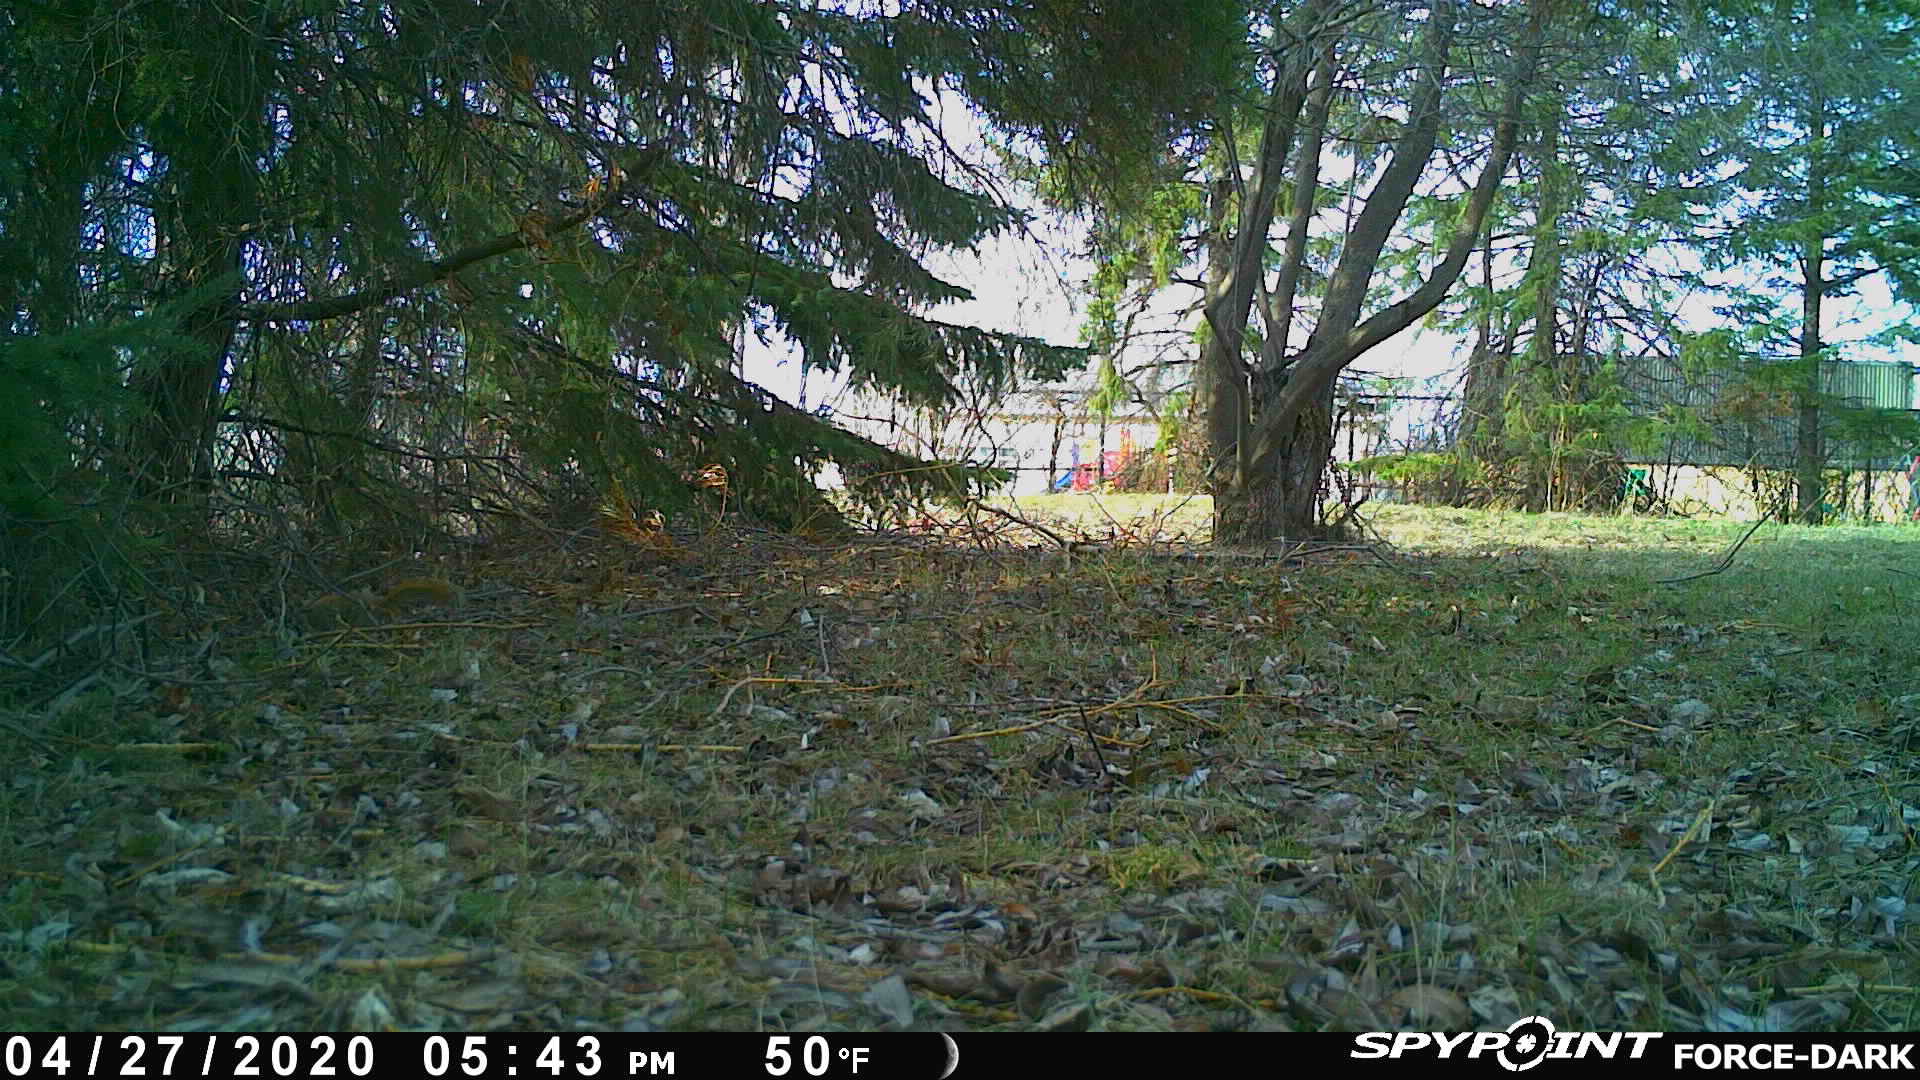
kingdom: Animalia
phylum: Chordata
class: Mammalia
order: Rodentia
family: Sciuridae
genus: Tamiasciurus
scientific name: Tamiasciurus hudsonicus
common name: Red squirrel
